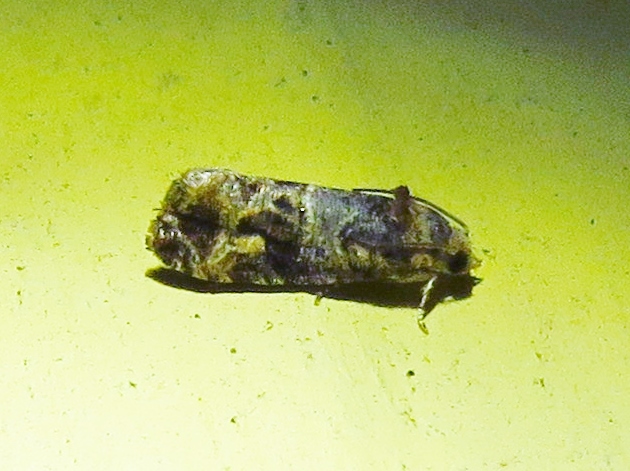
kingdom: Animalia
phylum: Arthropoda
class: Insecta
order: Lepidoptera
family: Tortricidae
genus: Paralobesia
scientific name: Paralobesia viteana
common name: Grape berry moth
